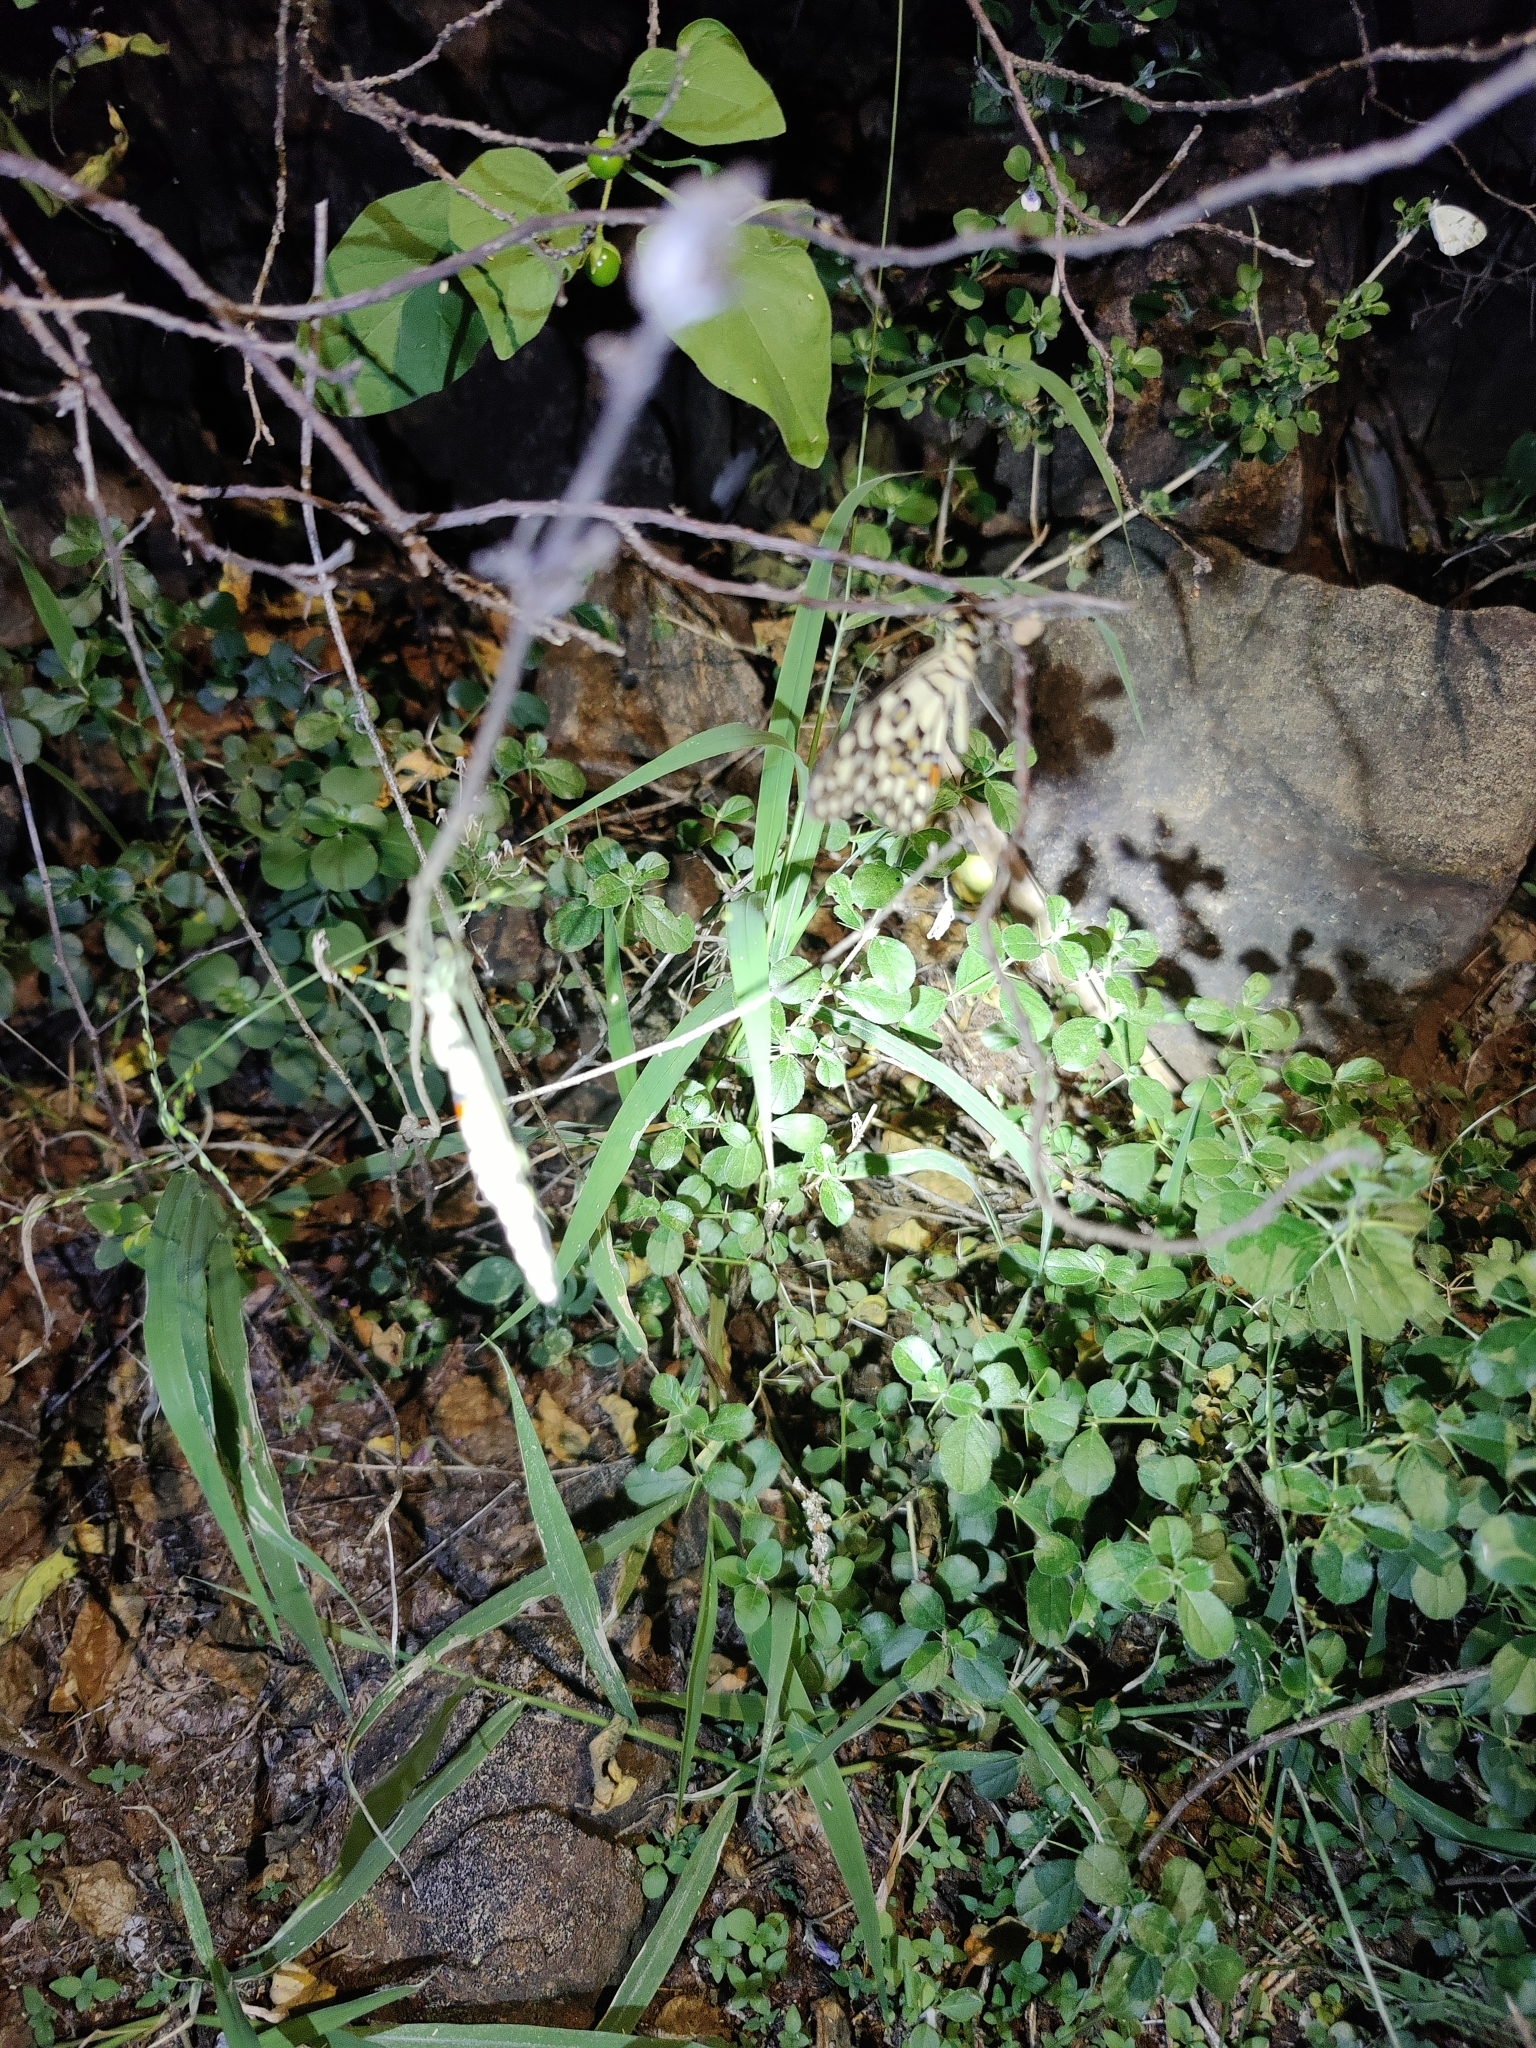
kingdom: Animalia
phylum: Arthropoda
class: Insecta
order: Lepidoptera
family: Papilionidae
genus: Papilio
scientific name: Papilio demoleus
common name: Lime butterfly
